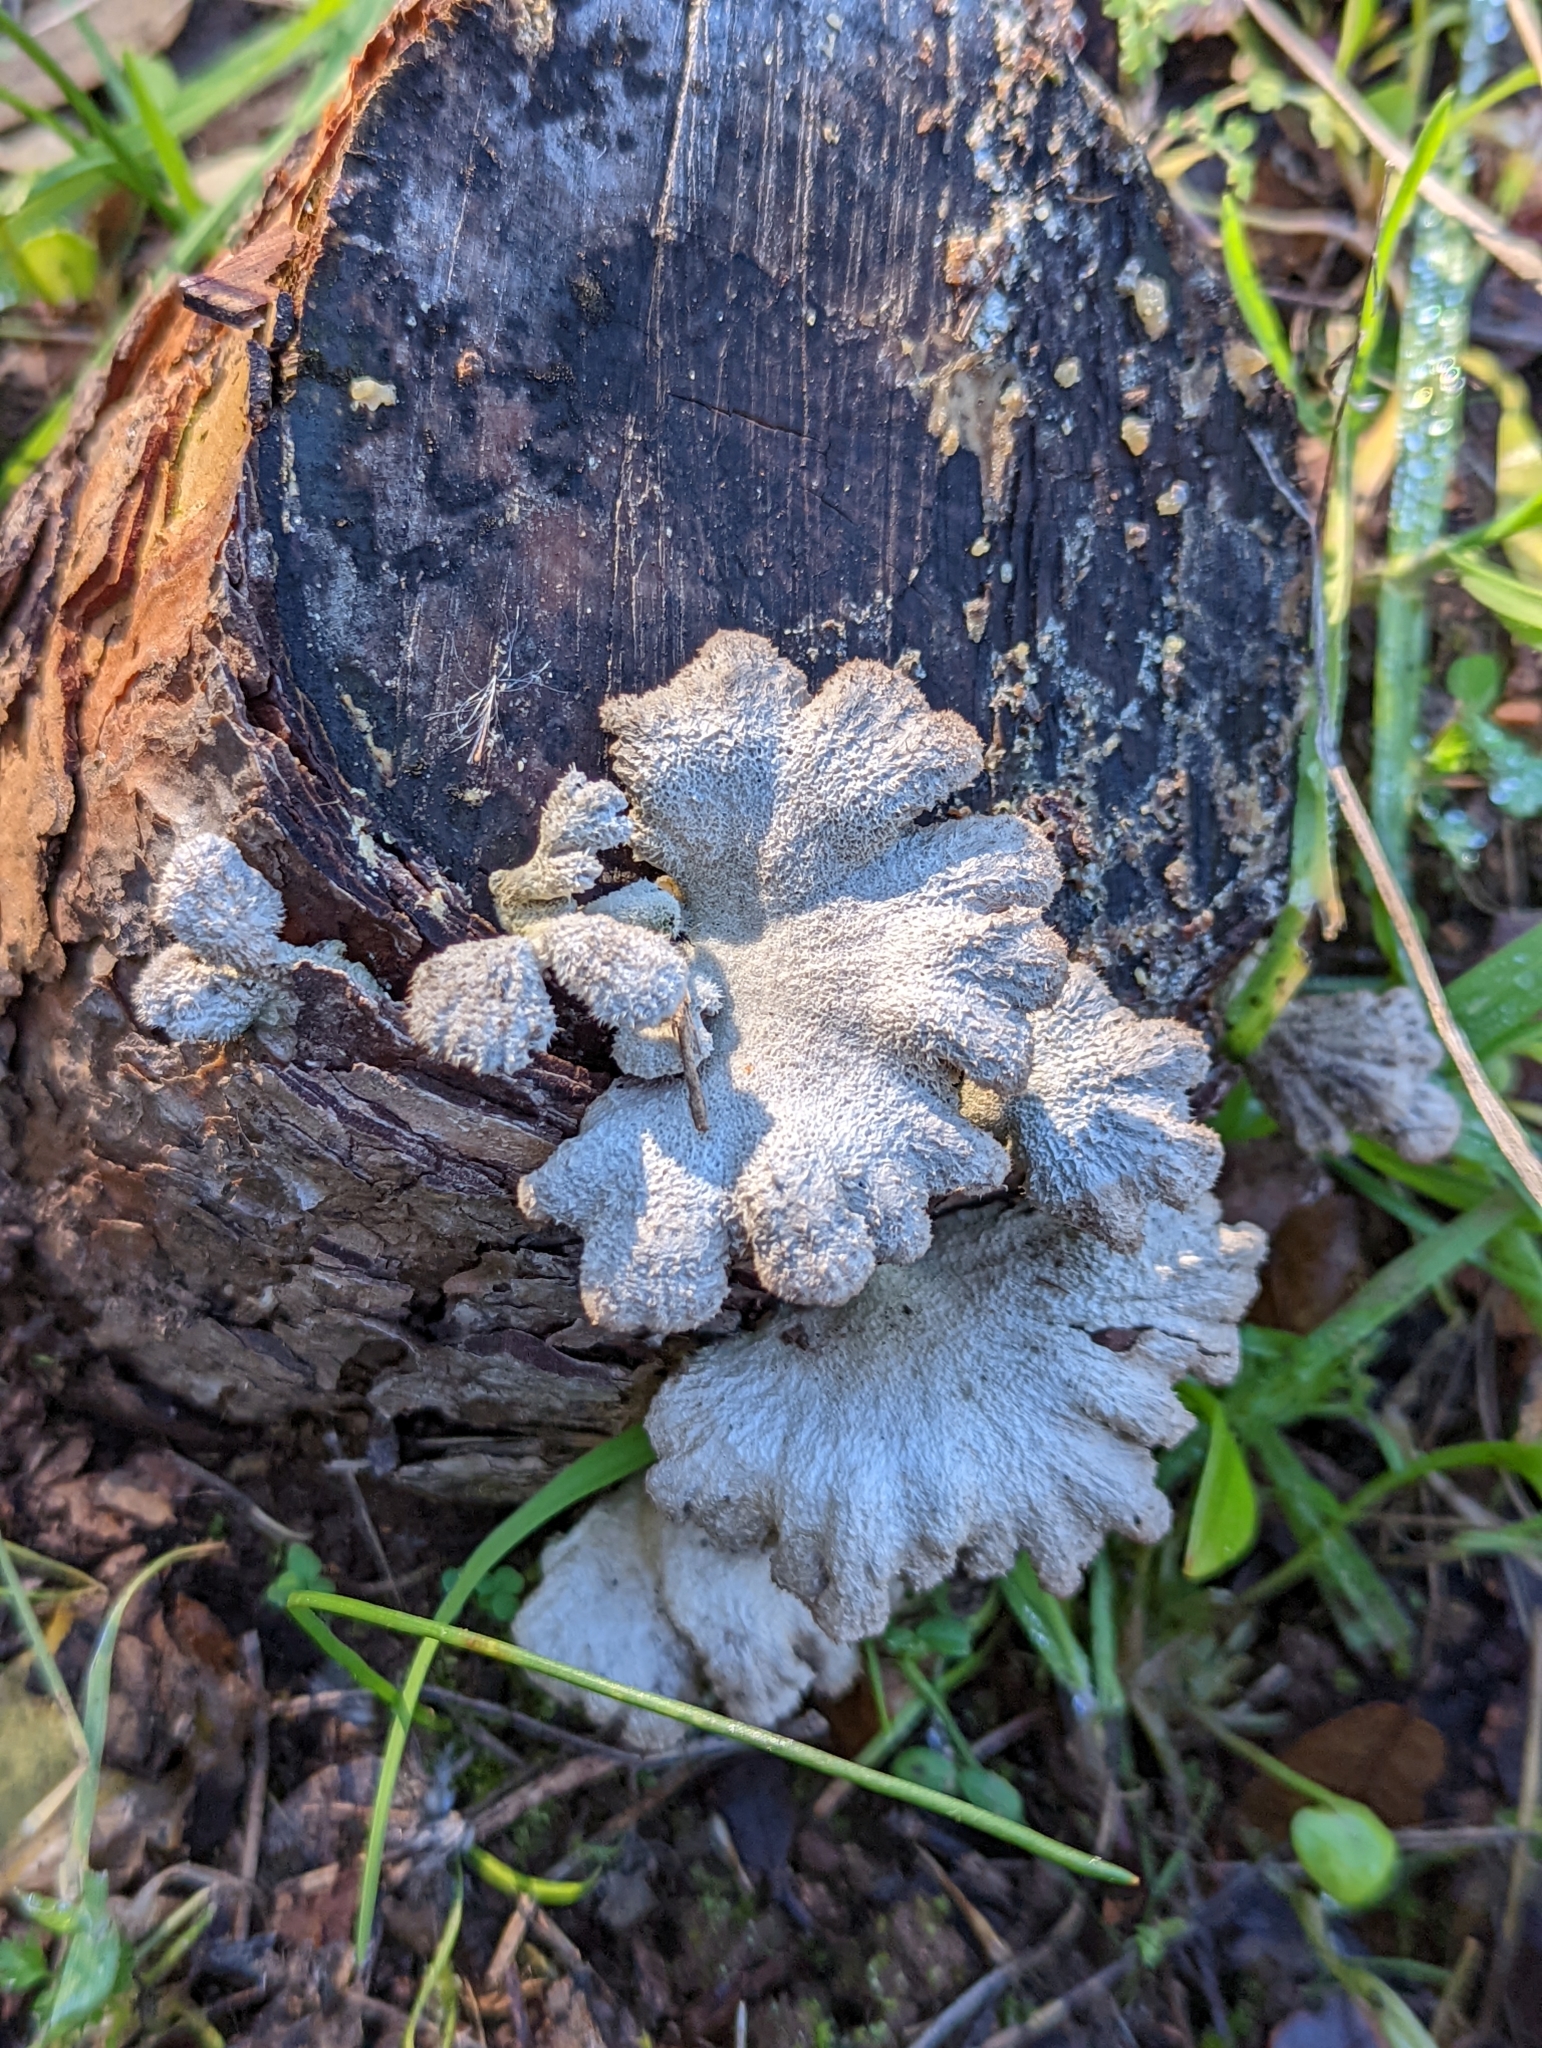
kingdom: Fungi
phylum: Basidiomycota
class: Agaricomycetes
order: Agaricales
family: Schizophyllaceae
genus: Schizophyllum
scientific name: Schizophyllum commune
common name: Common porecrust
